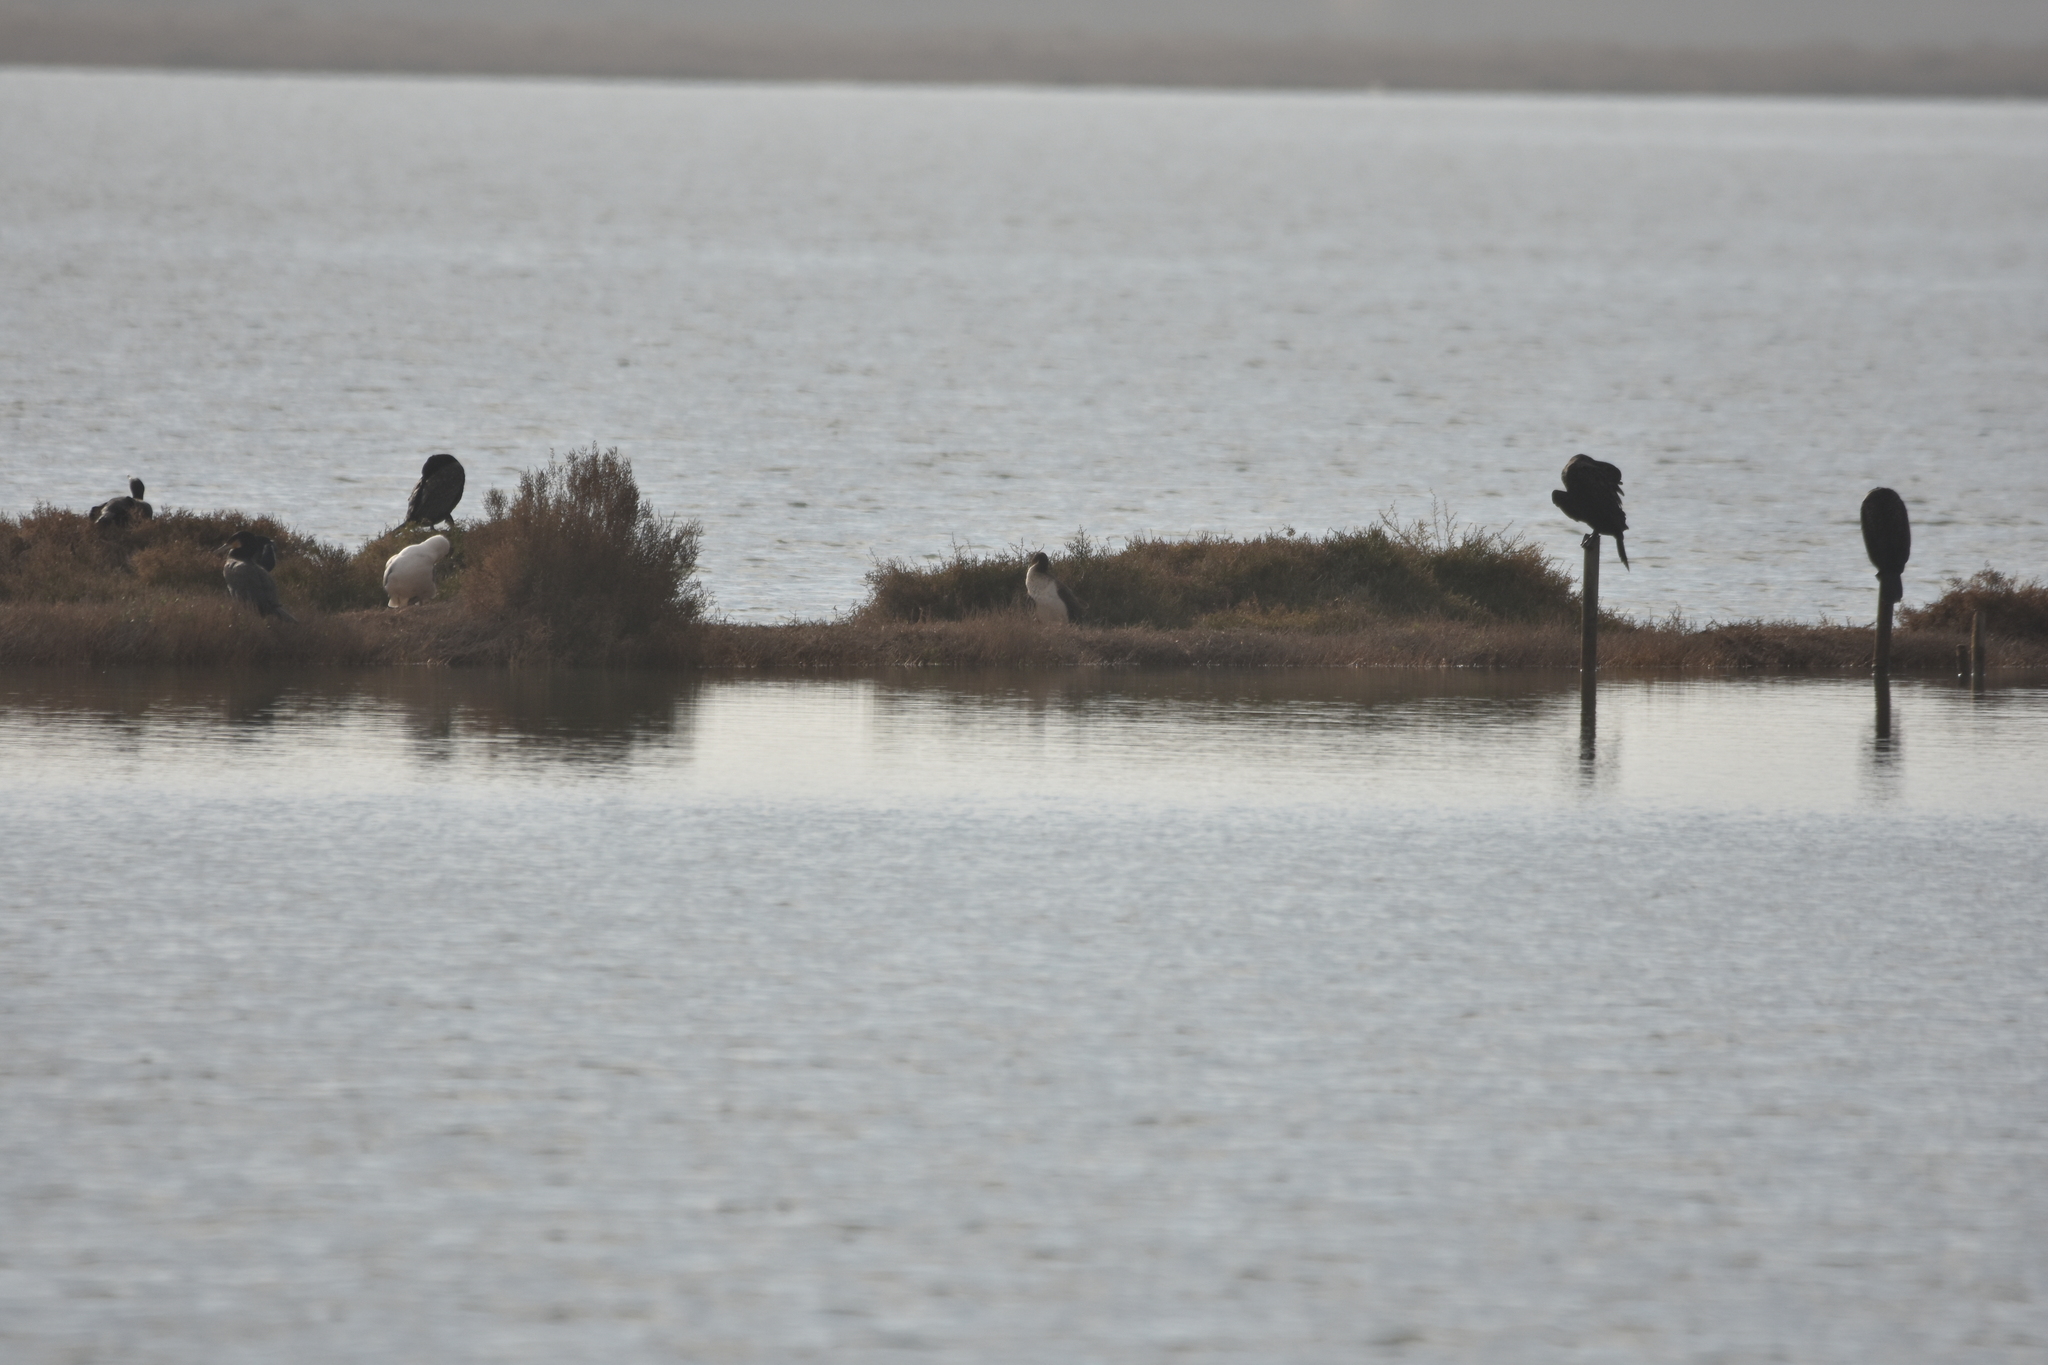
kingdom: Animalia
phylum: Chordata
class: Aves
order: Suliformes
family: Phalacrocoracidae
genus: Phalacrocorax
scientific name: Phalacrocorax carbo
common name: Great cormorant
